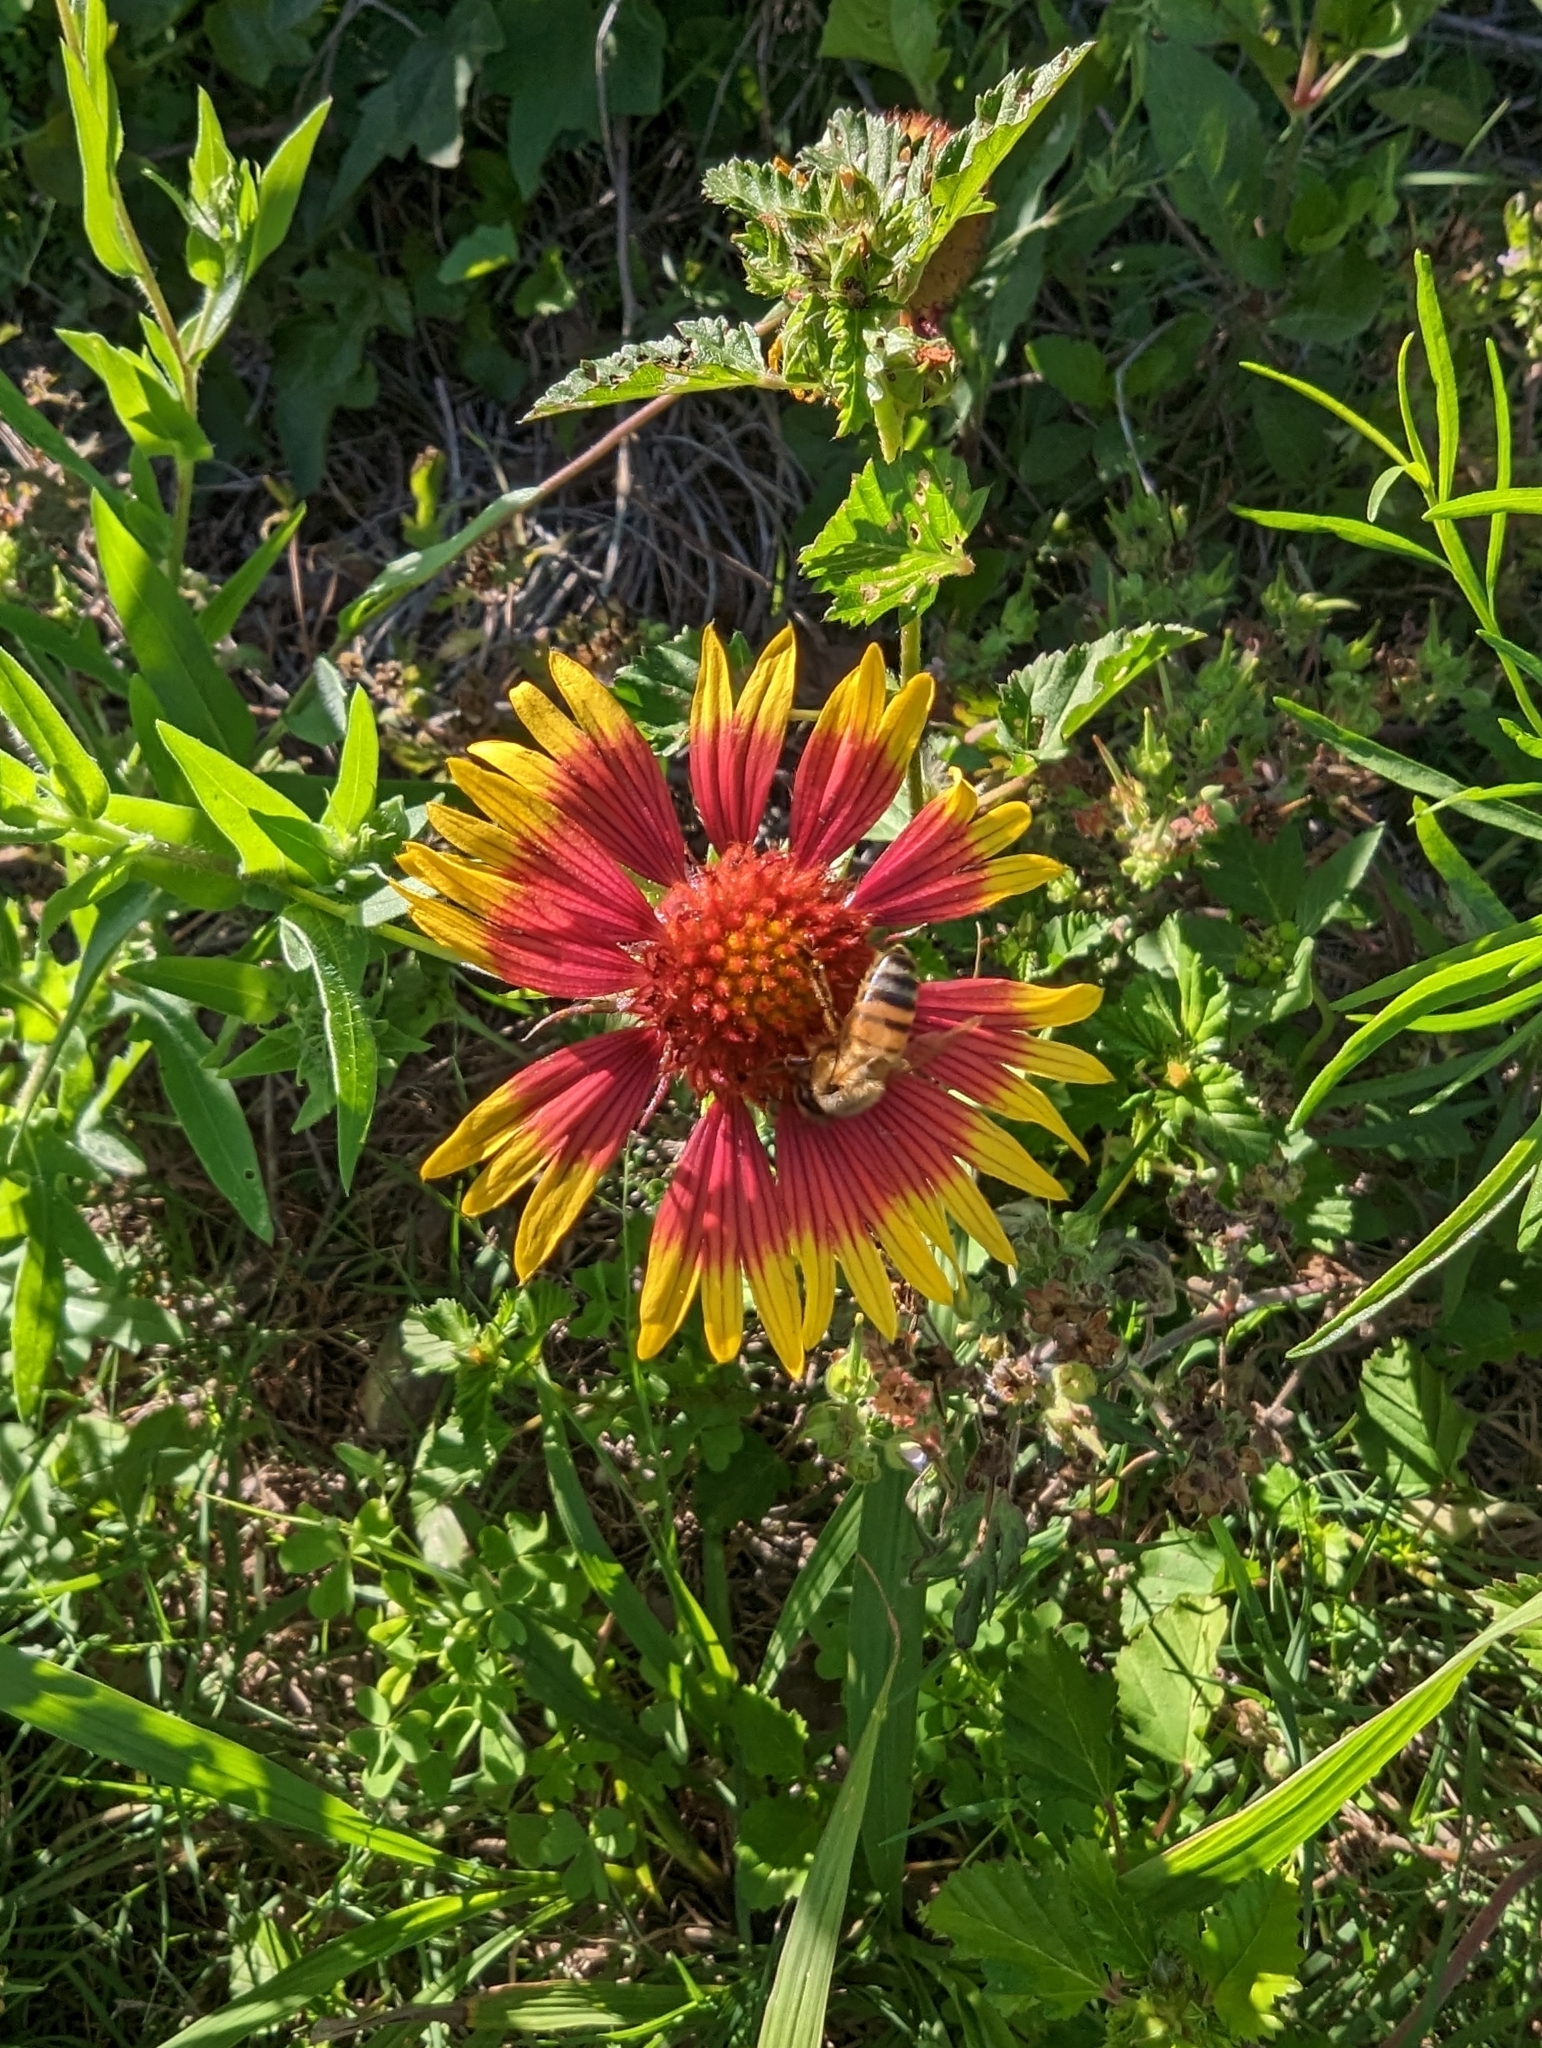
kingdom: Animalia
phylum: Arthropoda
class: Insecta
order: Hymenoptera
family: Apidae
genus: Apis
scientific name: Apis mellifera
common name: Honey bee
